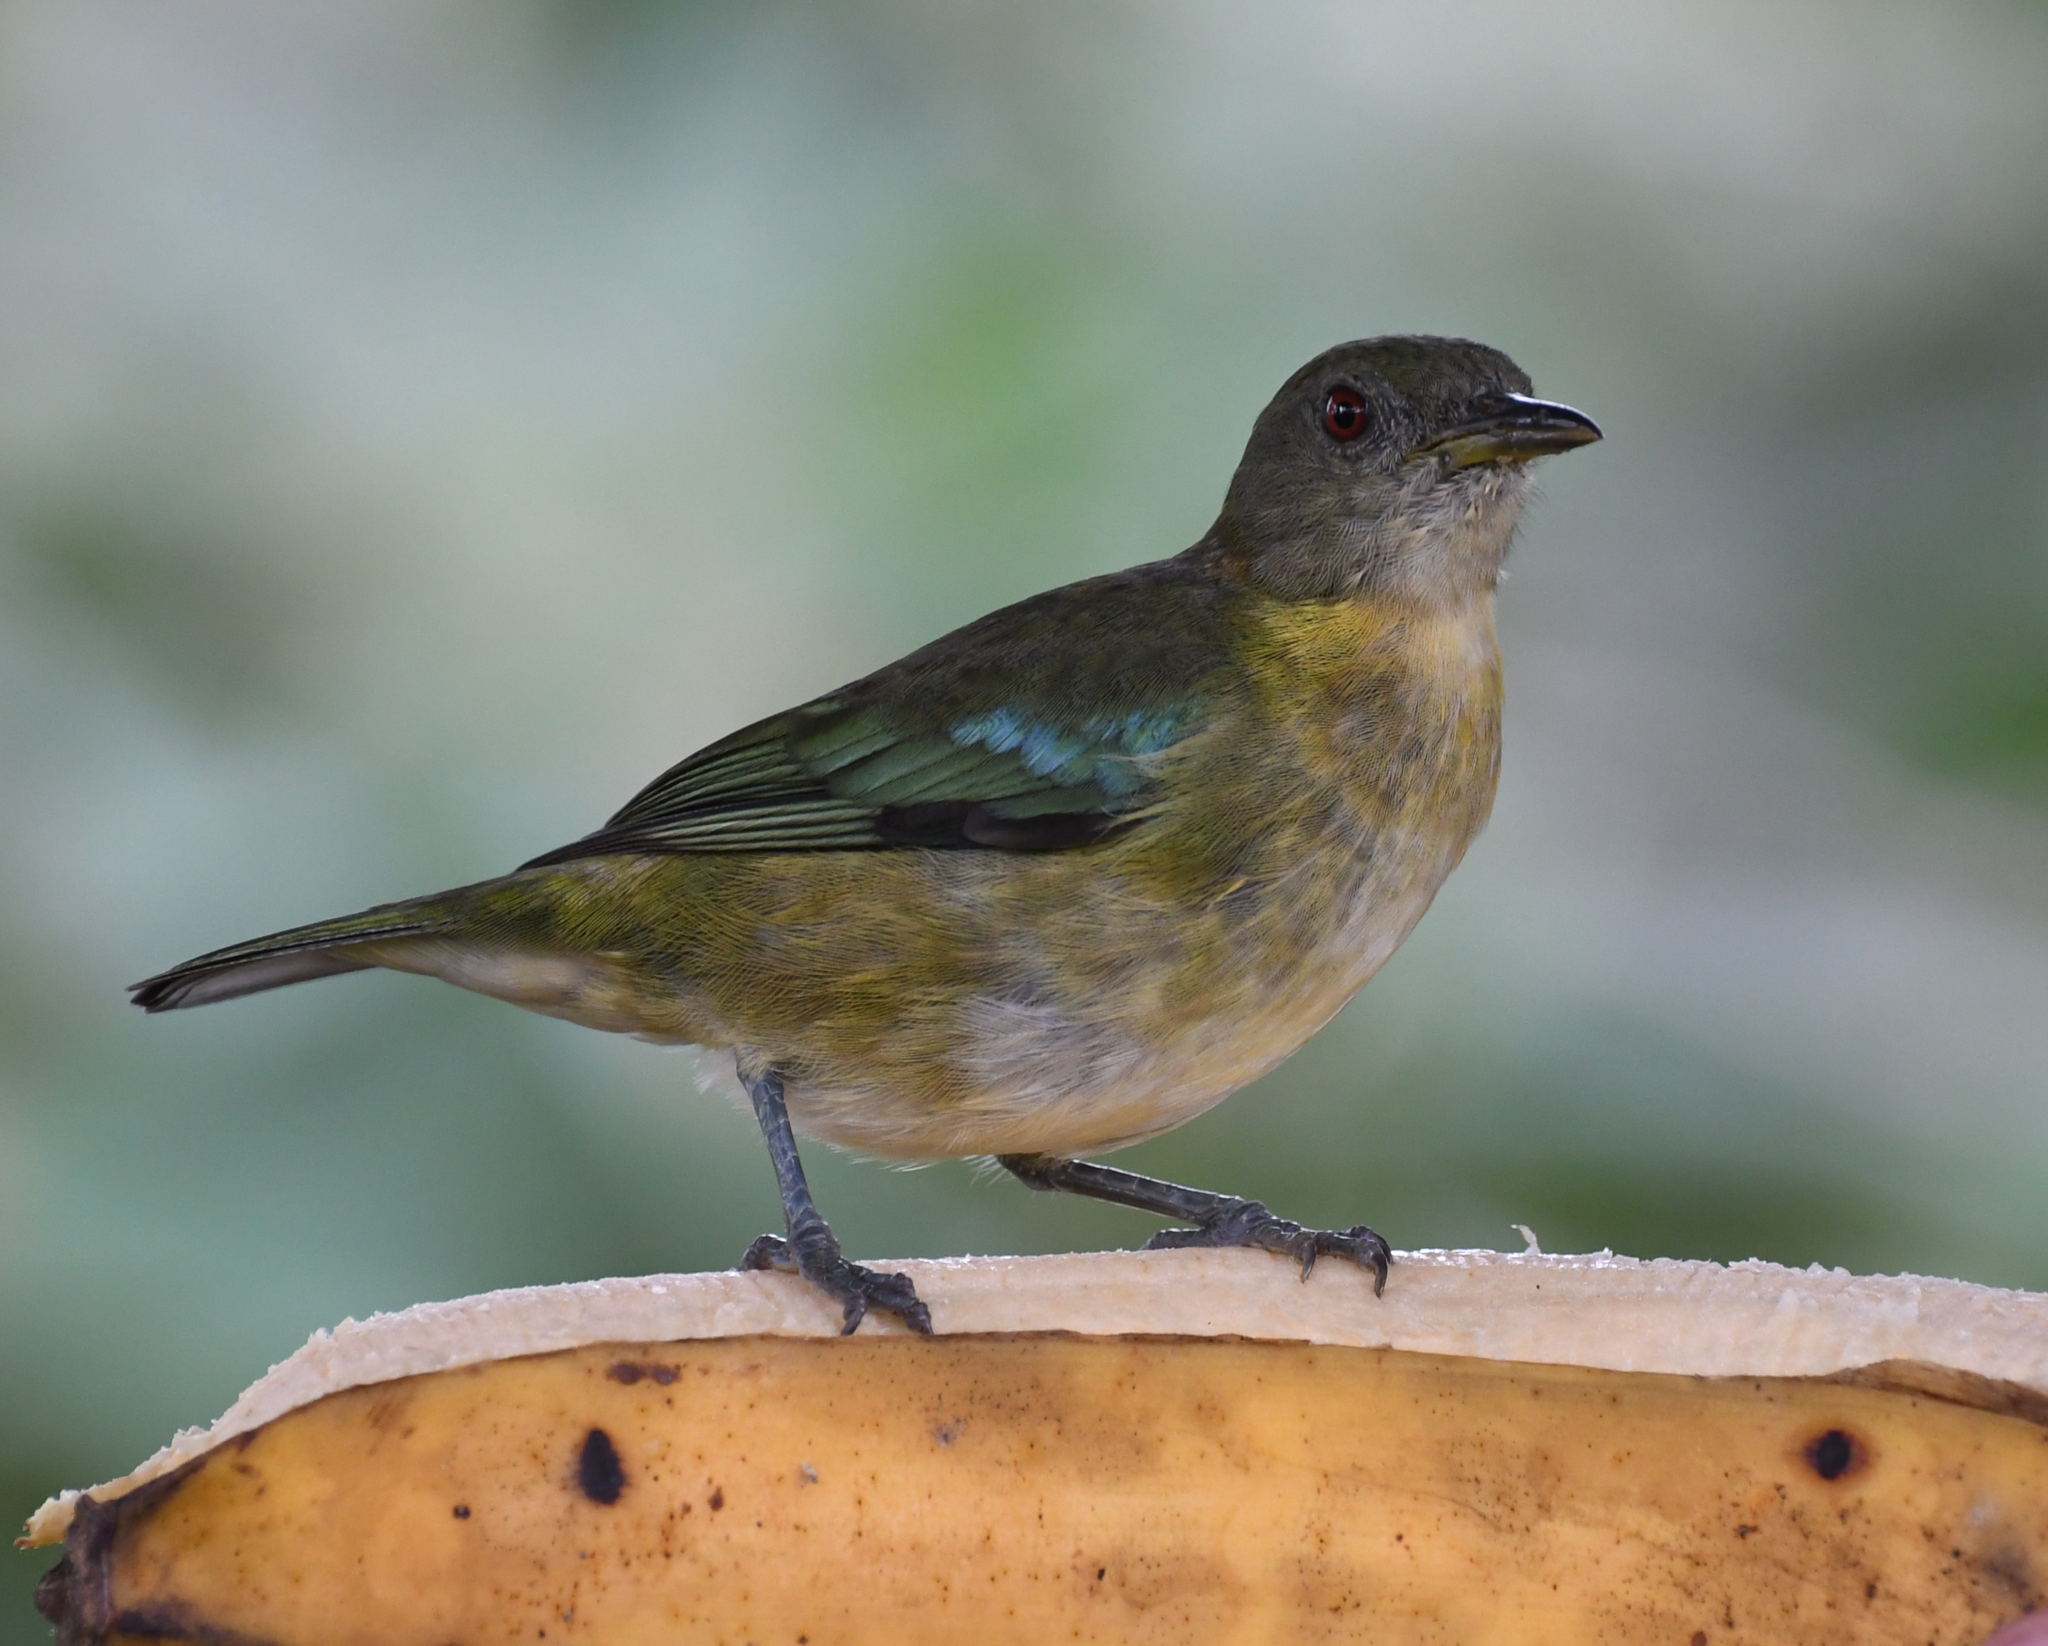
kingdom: Animalia
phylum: Chordata
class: Aves
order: Passeriformes
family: Thraupidae
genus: Iridophanes
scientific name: Iridophanes pulcherrimus
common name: Golden-collared honeycreeper
